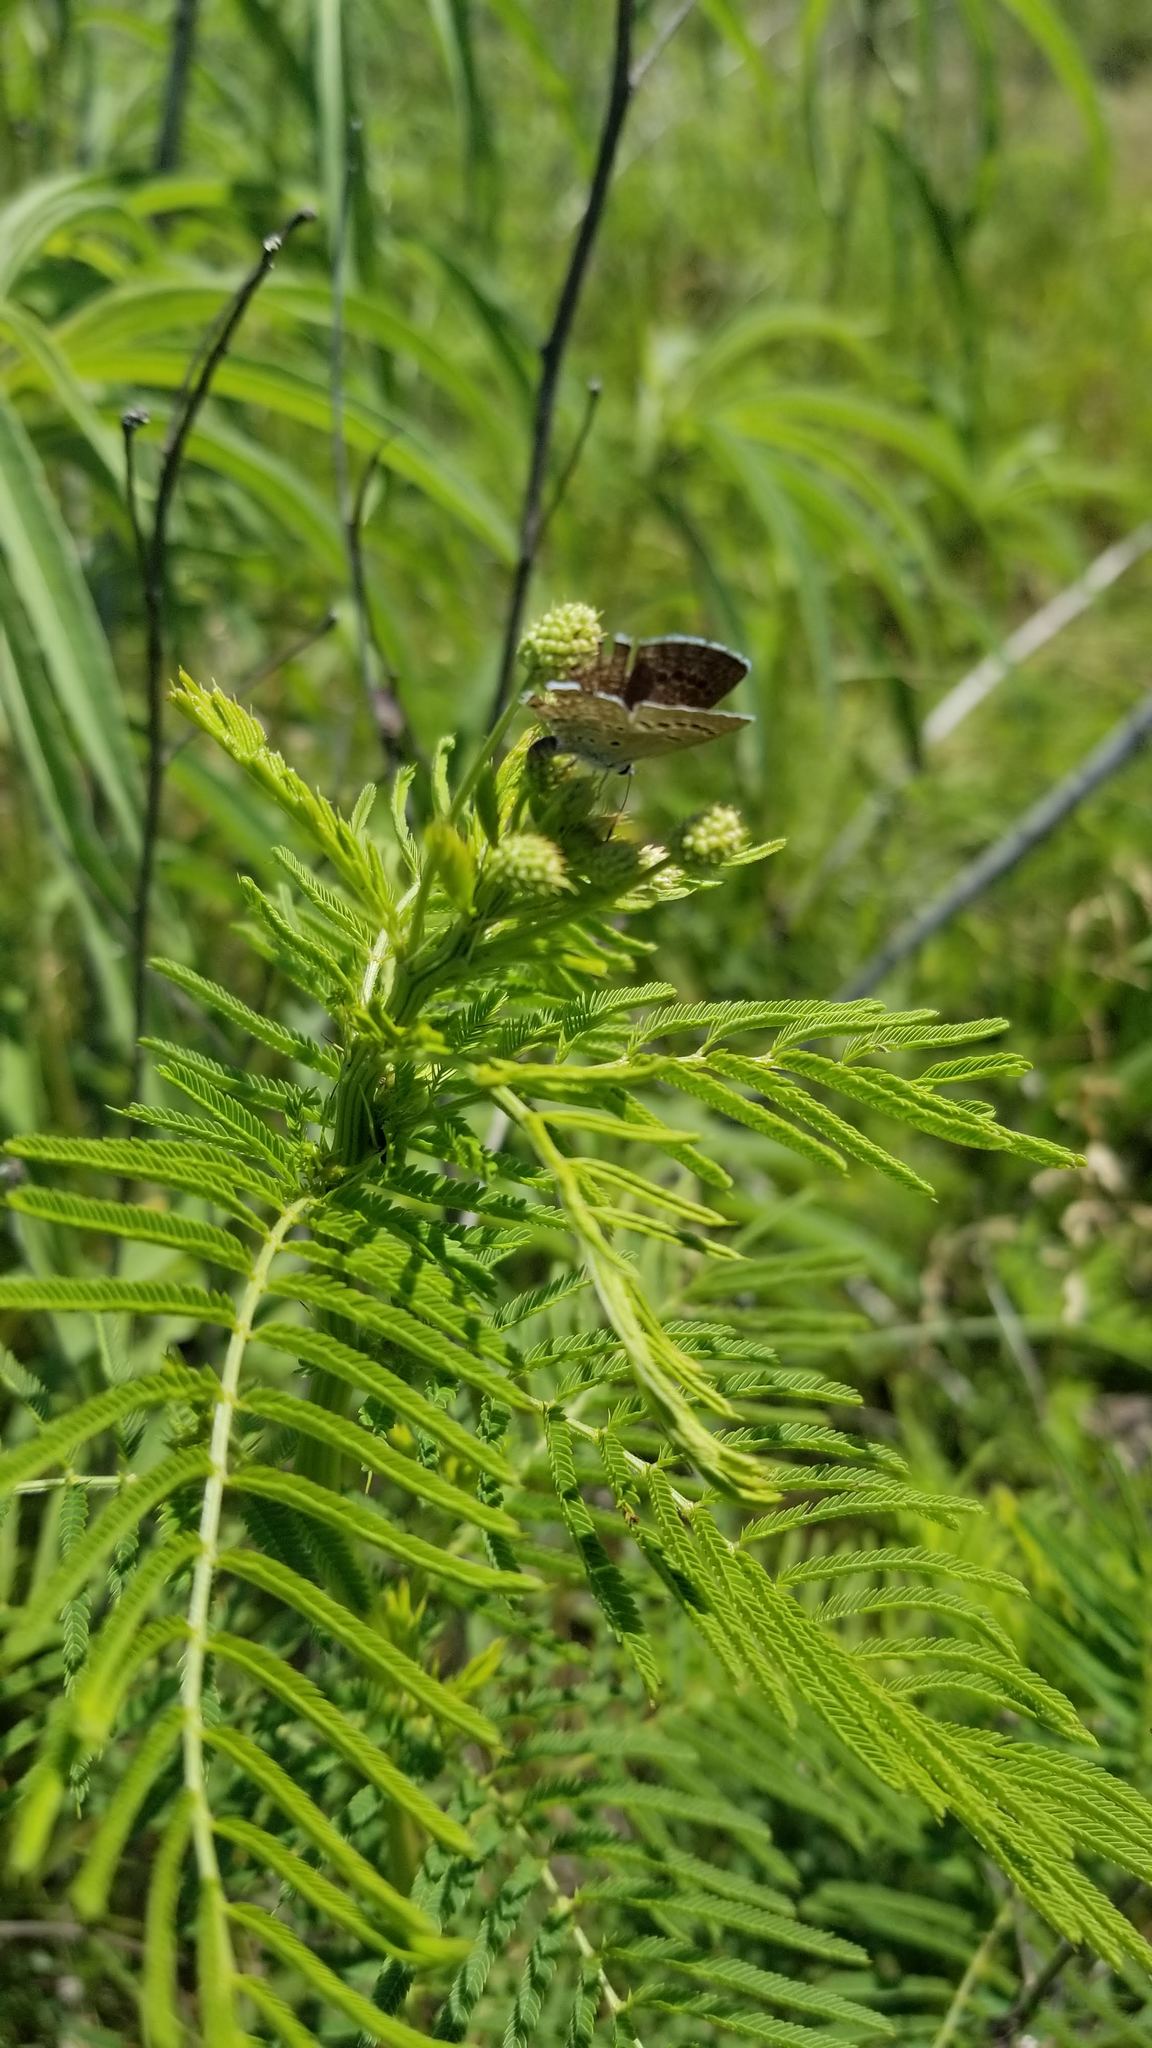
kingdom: Plantae
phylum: Tracheophyta
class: Magnoliopsida
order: Fabales
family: Fabaceae
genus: Desmanthus
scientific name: Desmanthus illinoensis
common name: Illinois bundle-flower
